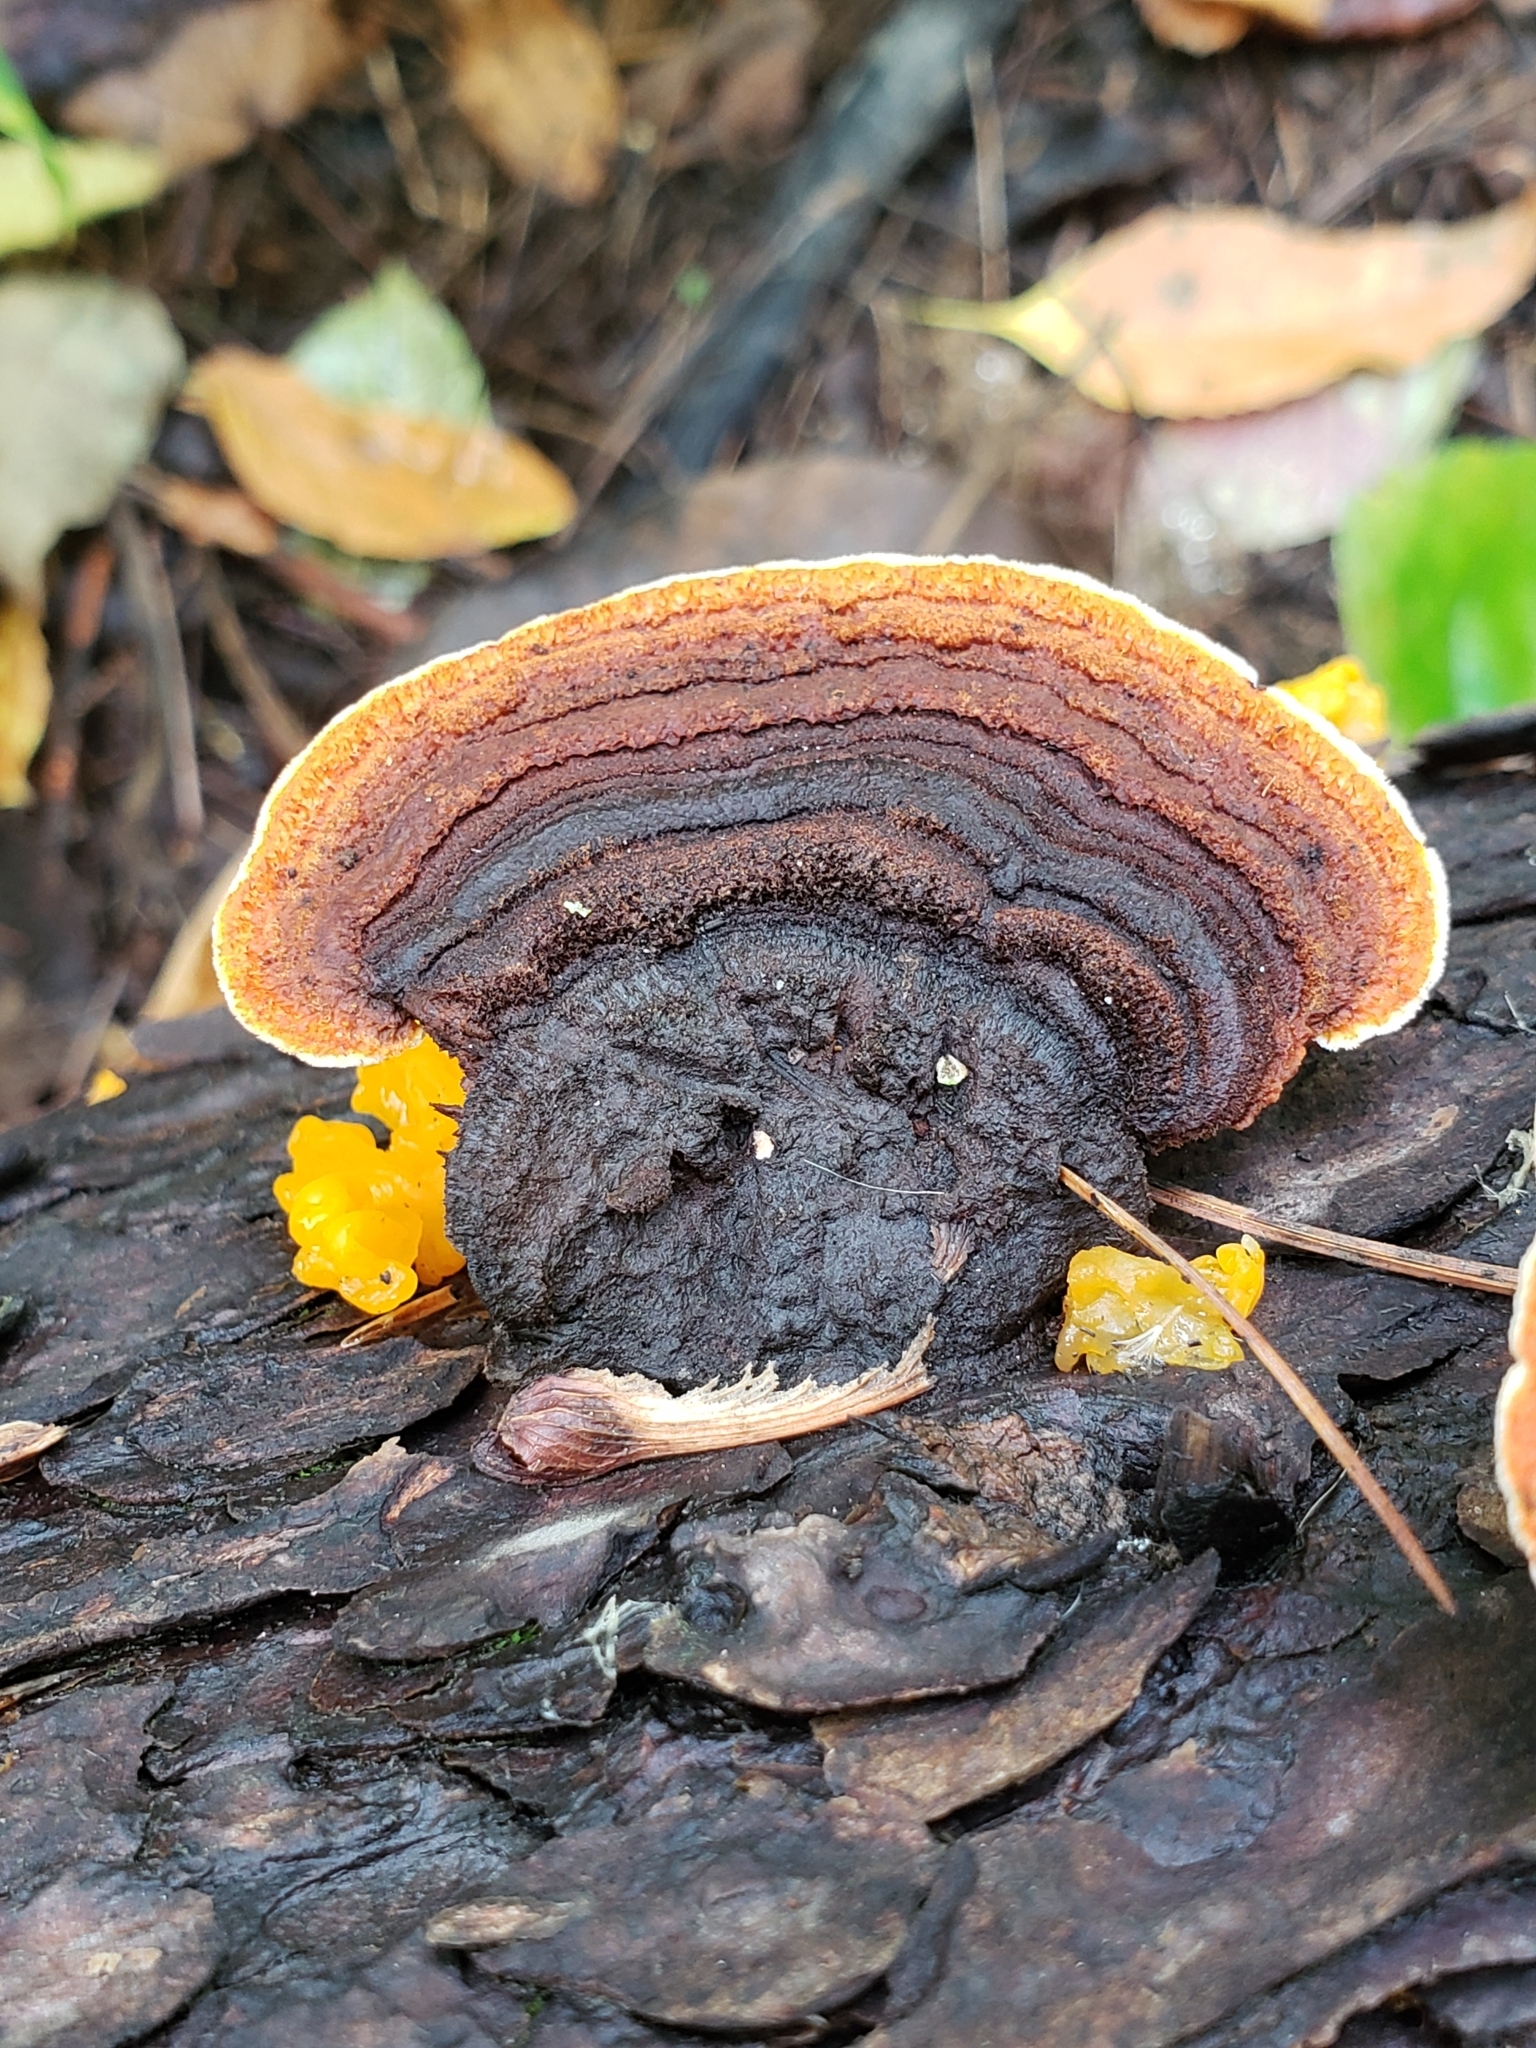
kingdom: Fungi
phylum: Basidiomycota
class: Agaricomycetes
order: Gloeophyllales
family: Gloeophyllaceae
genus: Gloeophyllum
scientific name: Gloeophyllum sepiarium
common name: Conifer mazegill
